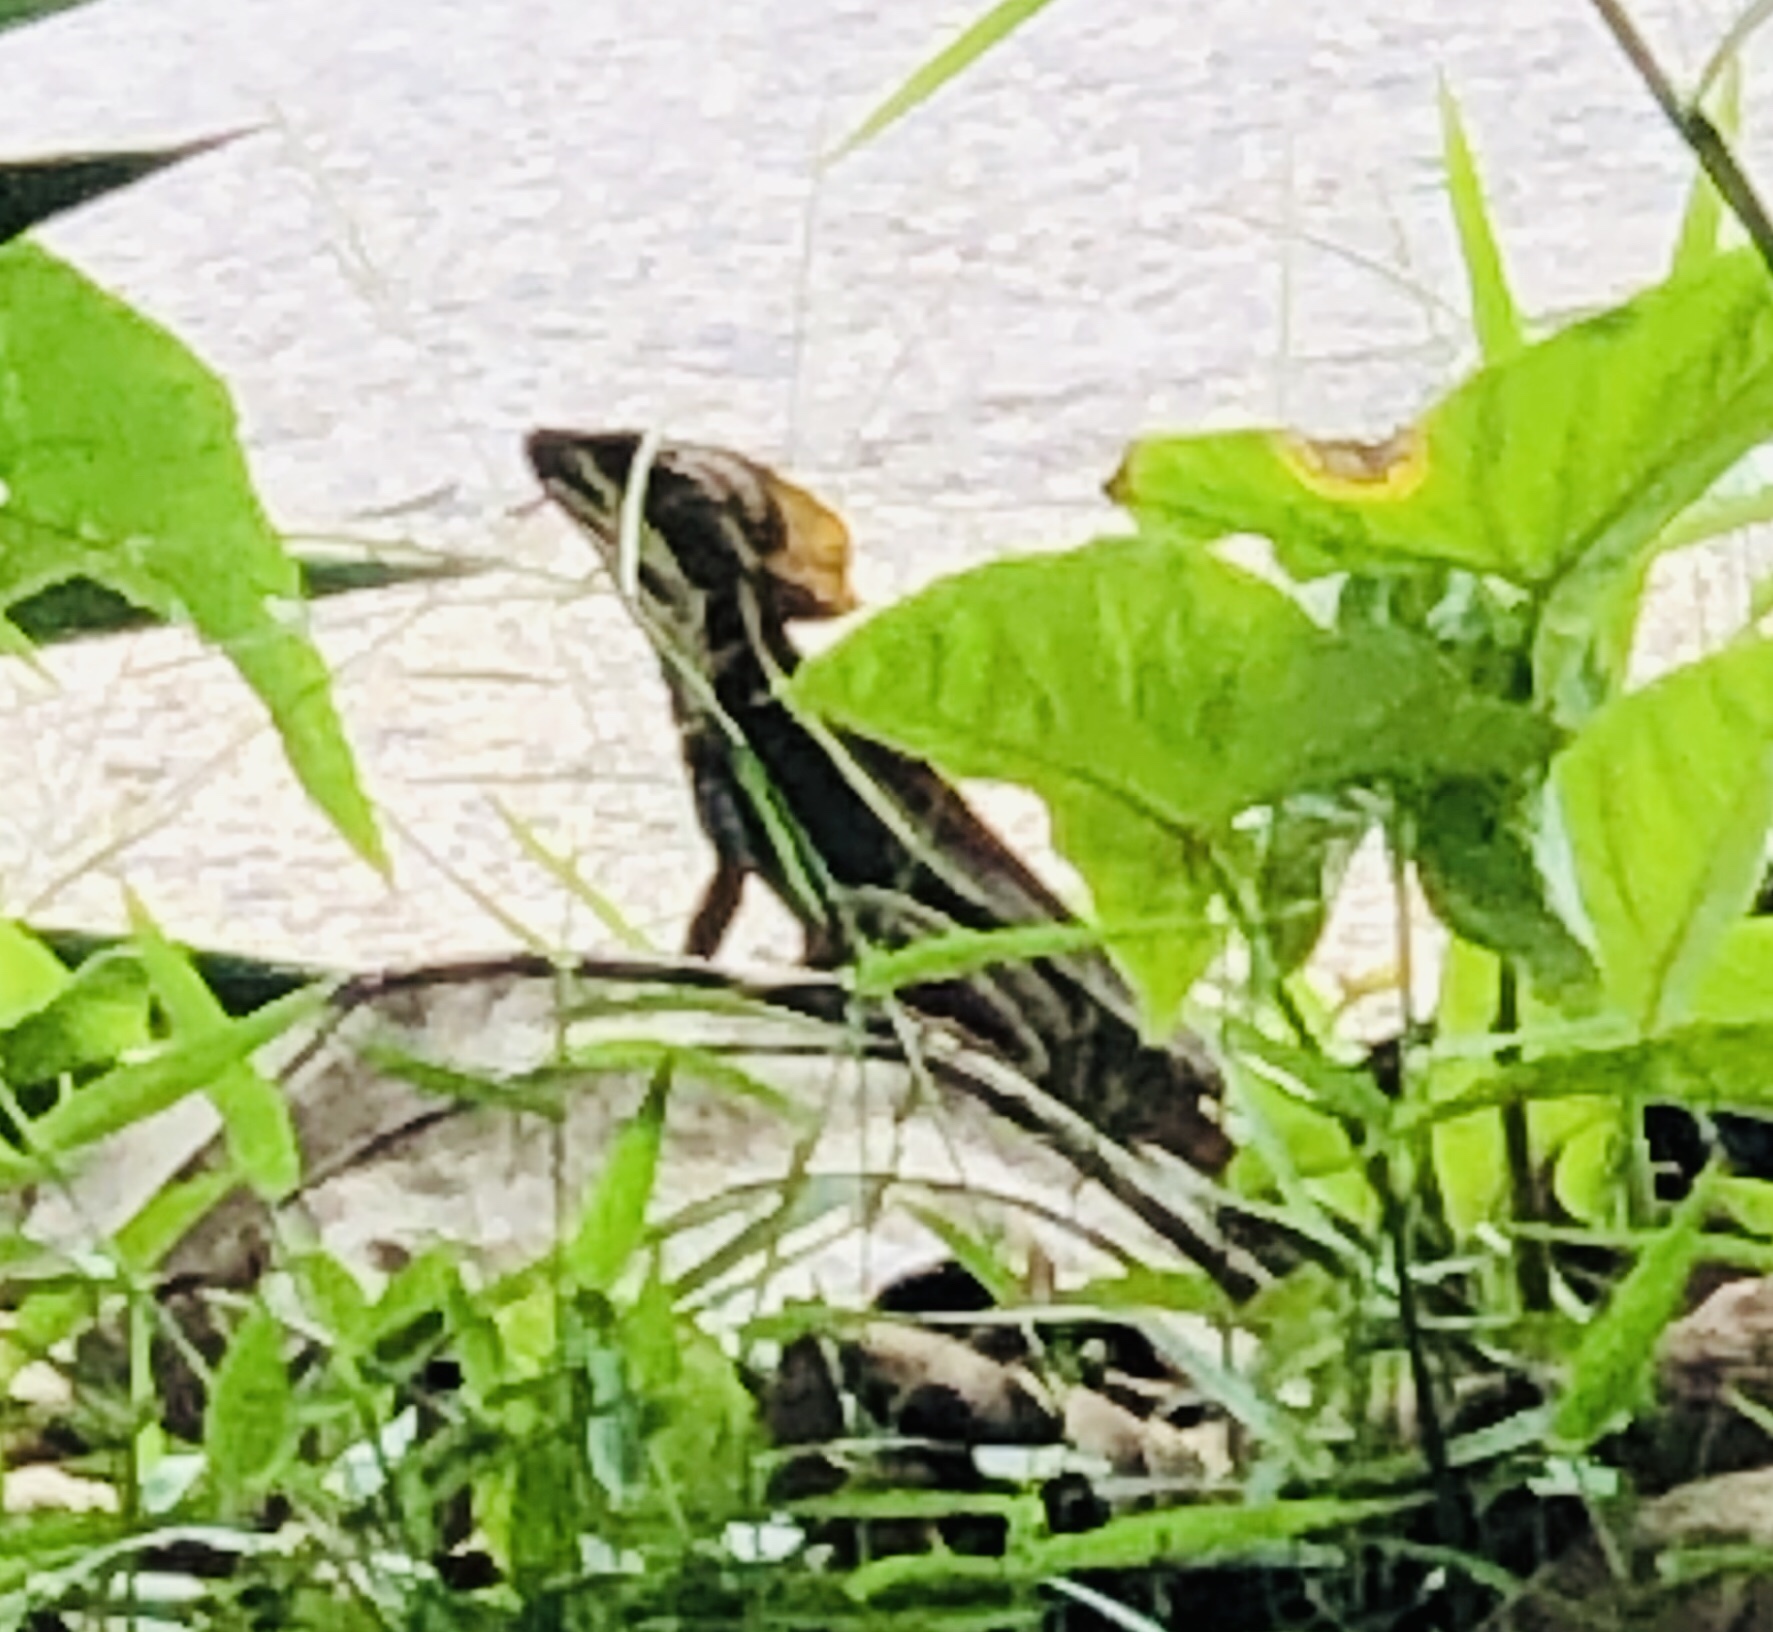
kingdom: Animalia
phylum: Chordata
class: Squamata
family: Corytophanidae
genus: Basiliscus
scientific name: Basiliscus vittatus
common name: Brown basilisk
